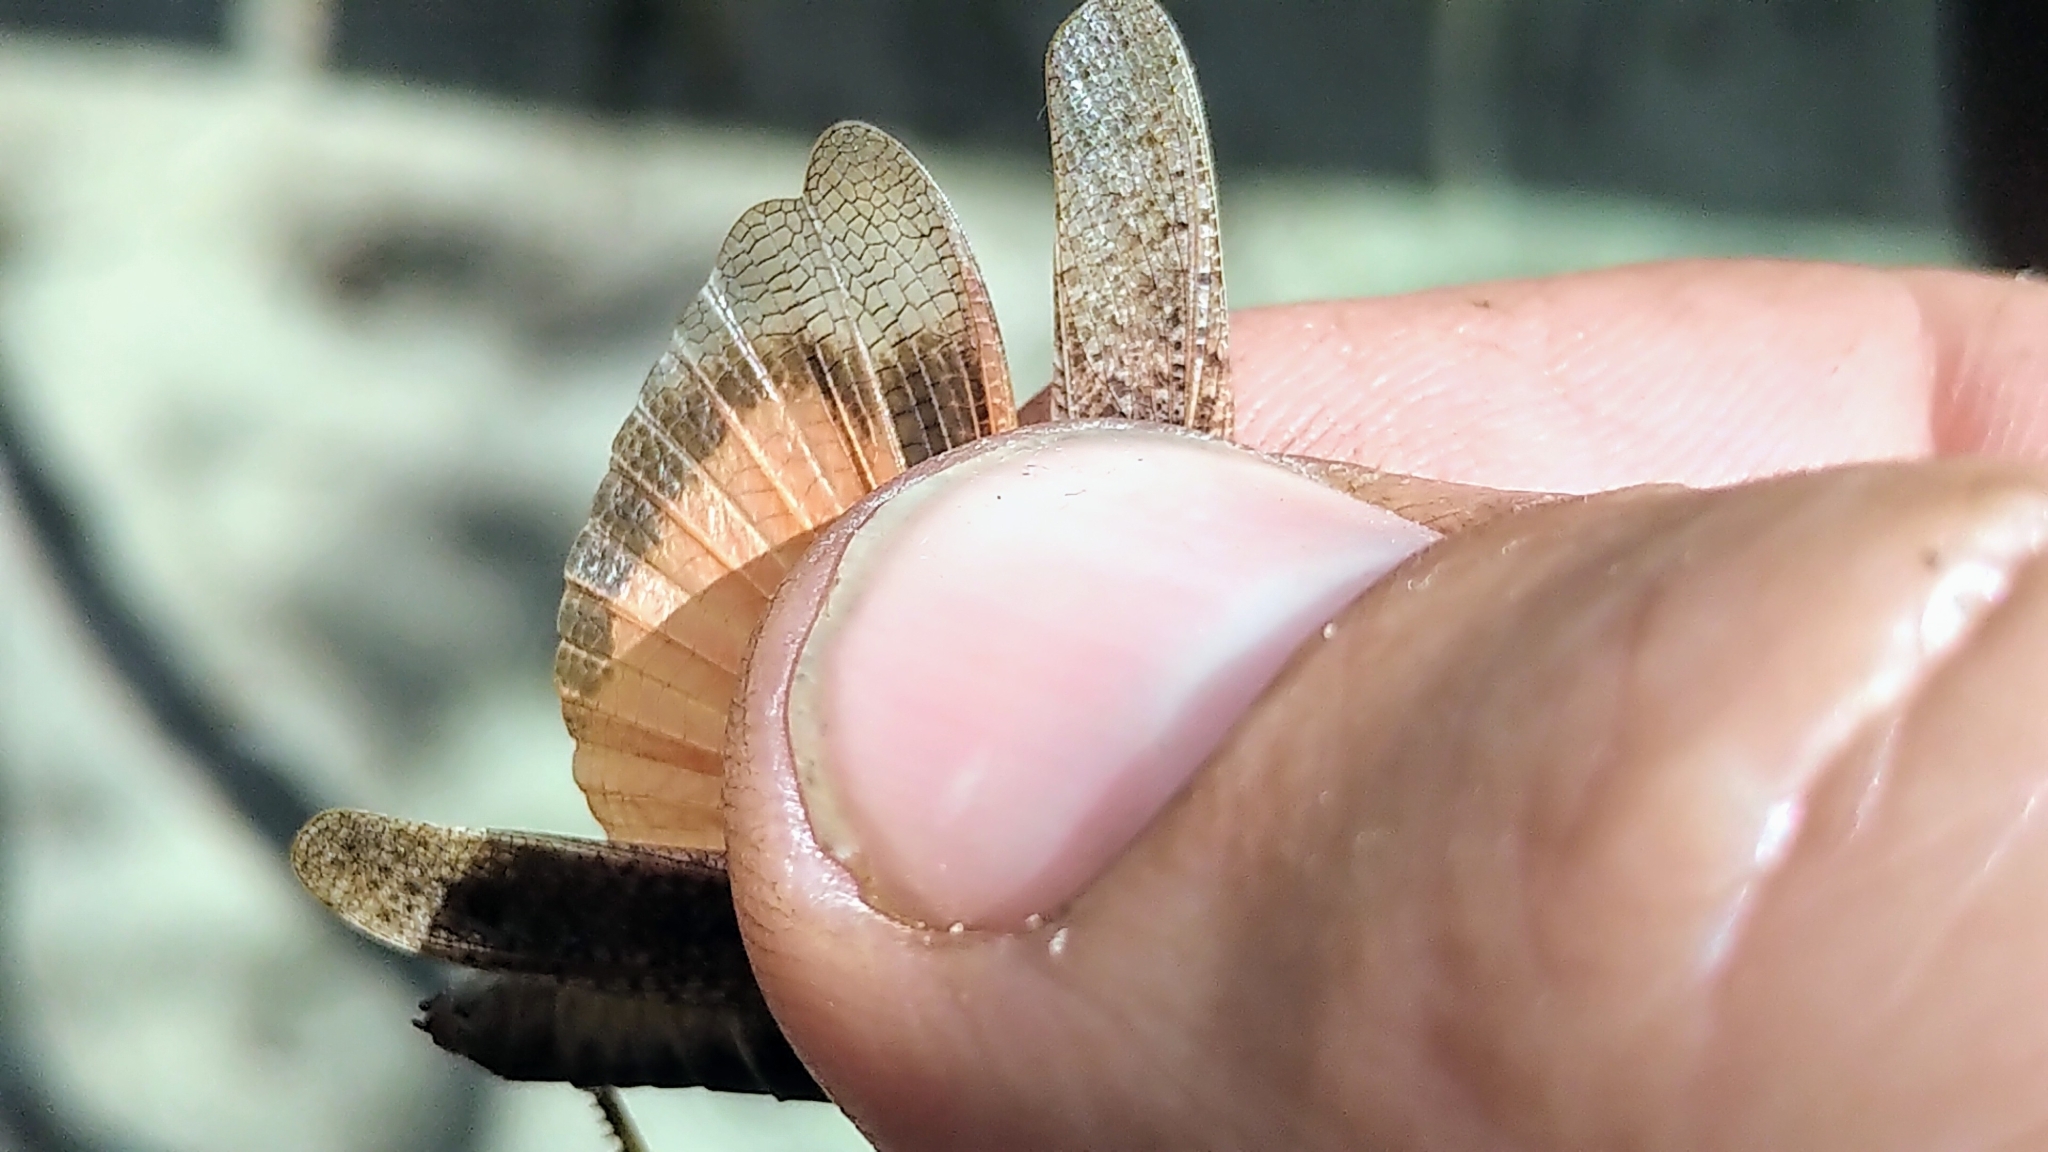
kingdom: Animalia
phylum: Arthropoda
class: Insecta
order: Orthoptera
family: Acrididae
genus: Arphia
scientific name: Arphia conspersa
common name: Speckle-winged rangeland grasshopper
